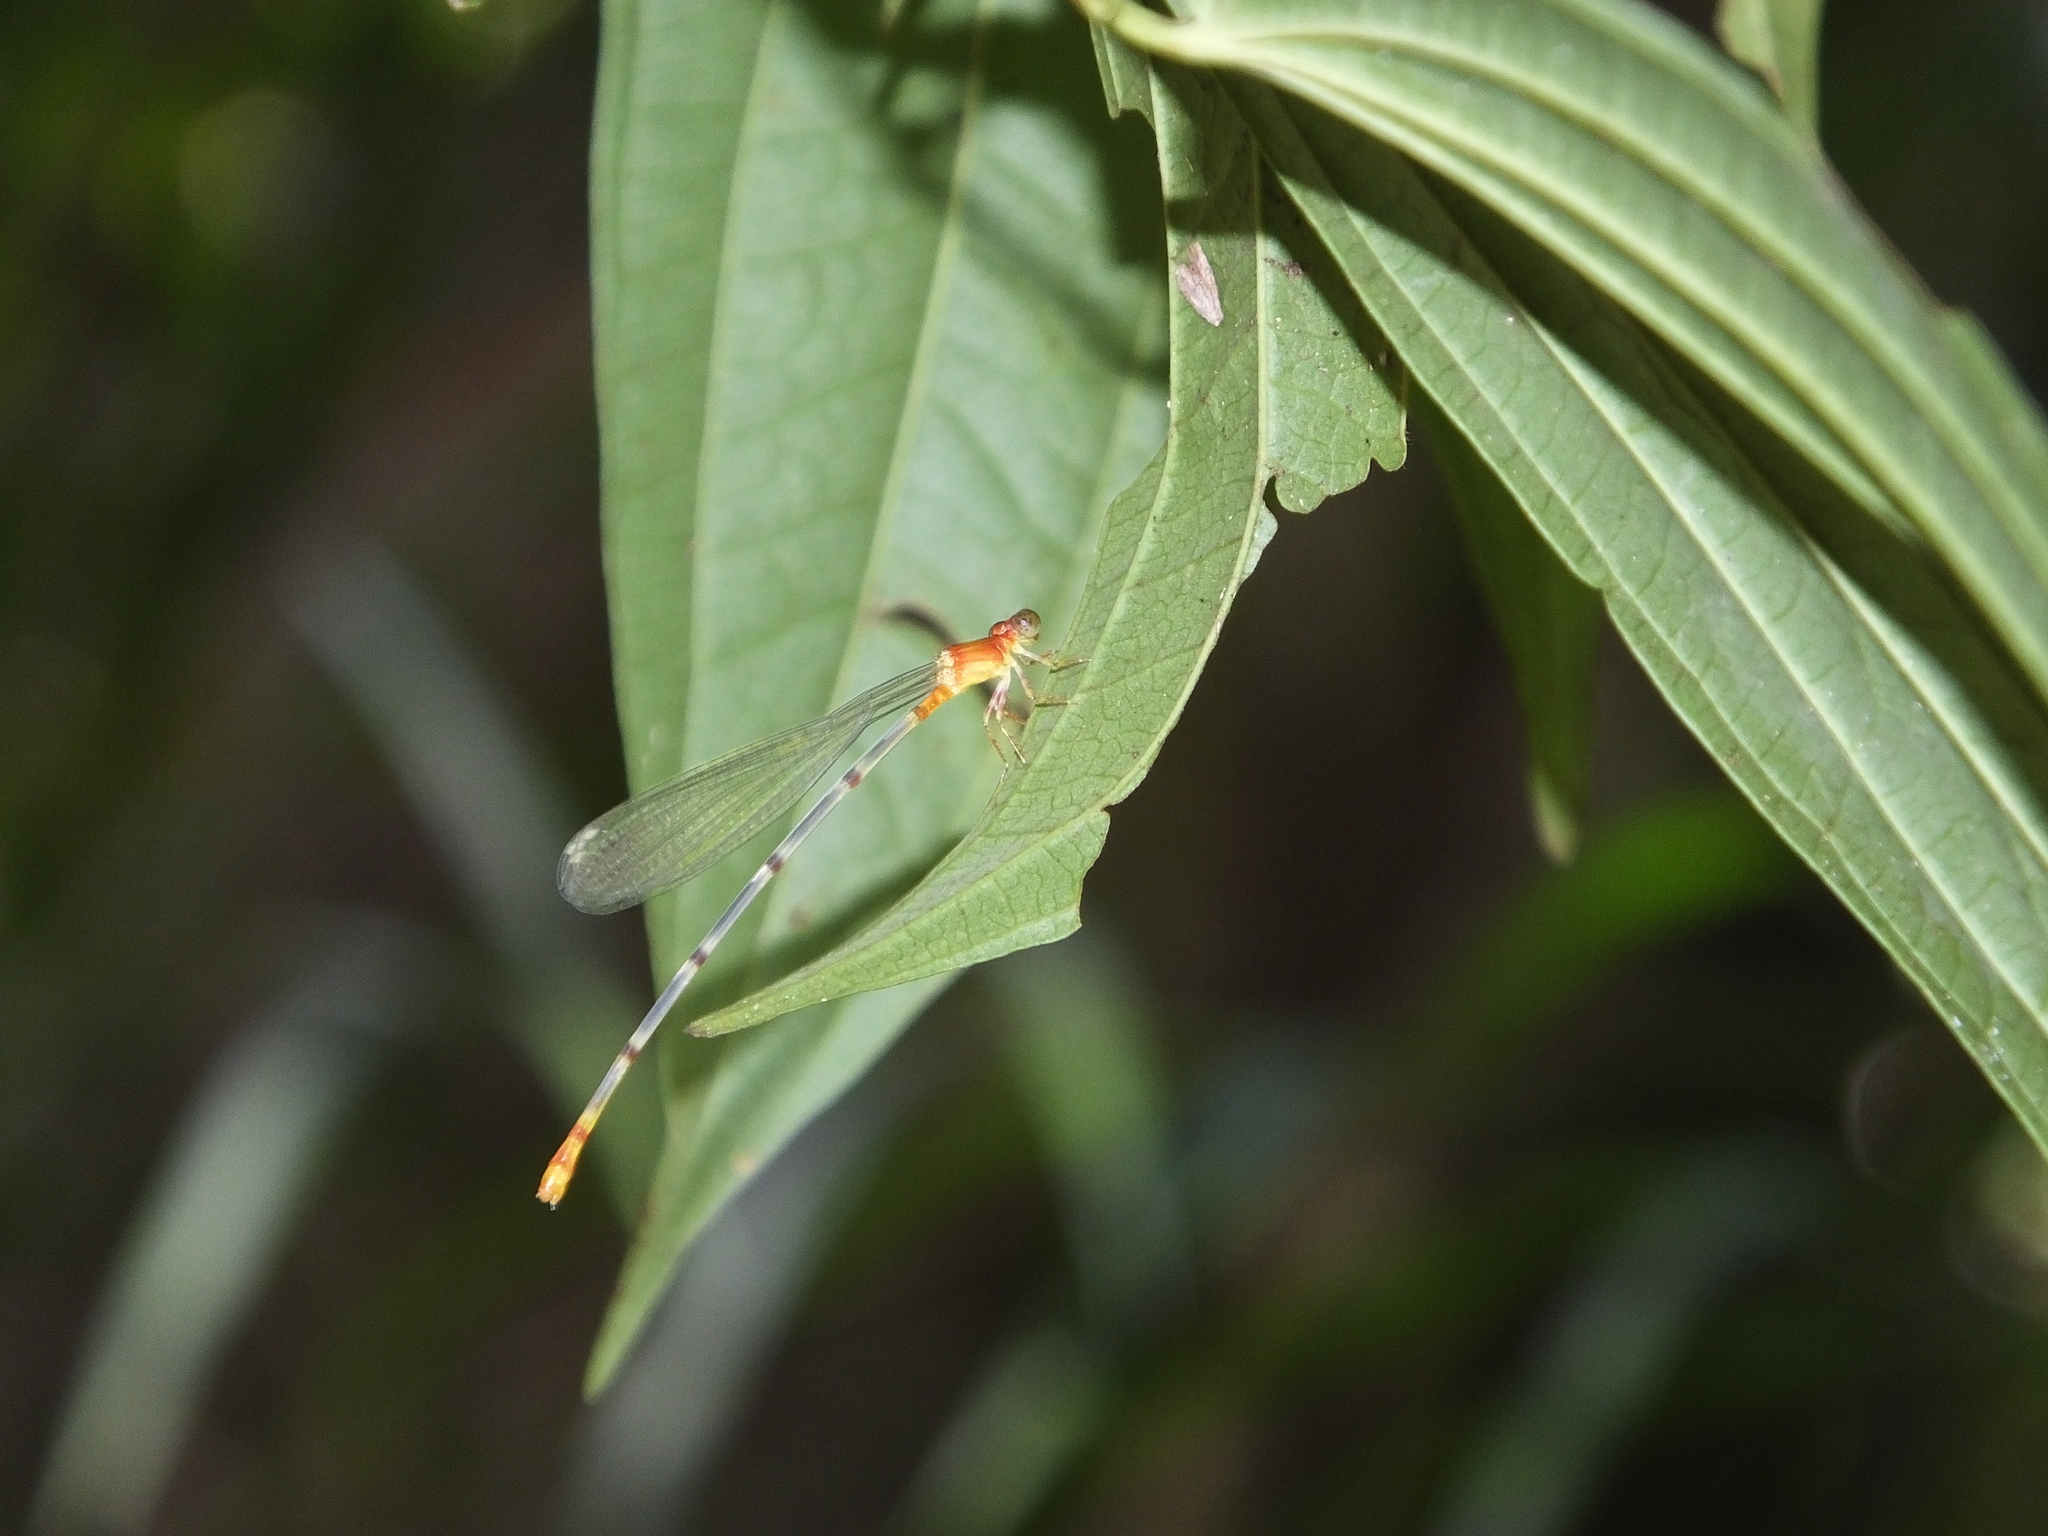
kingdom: Animalia
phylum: Arthropoda
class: Insecta
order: Odonata
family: Coenagrionidae
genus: Teinobasis
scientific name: Teinobasis helvola
